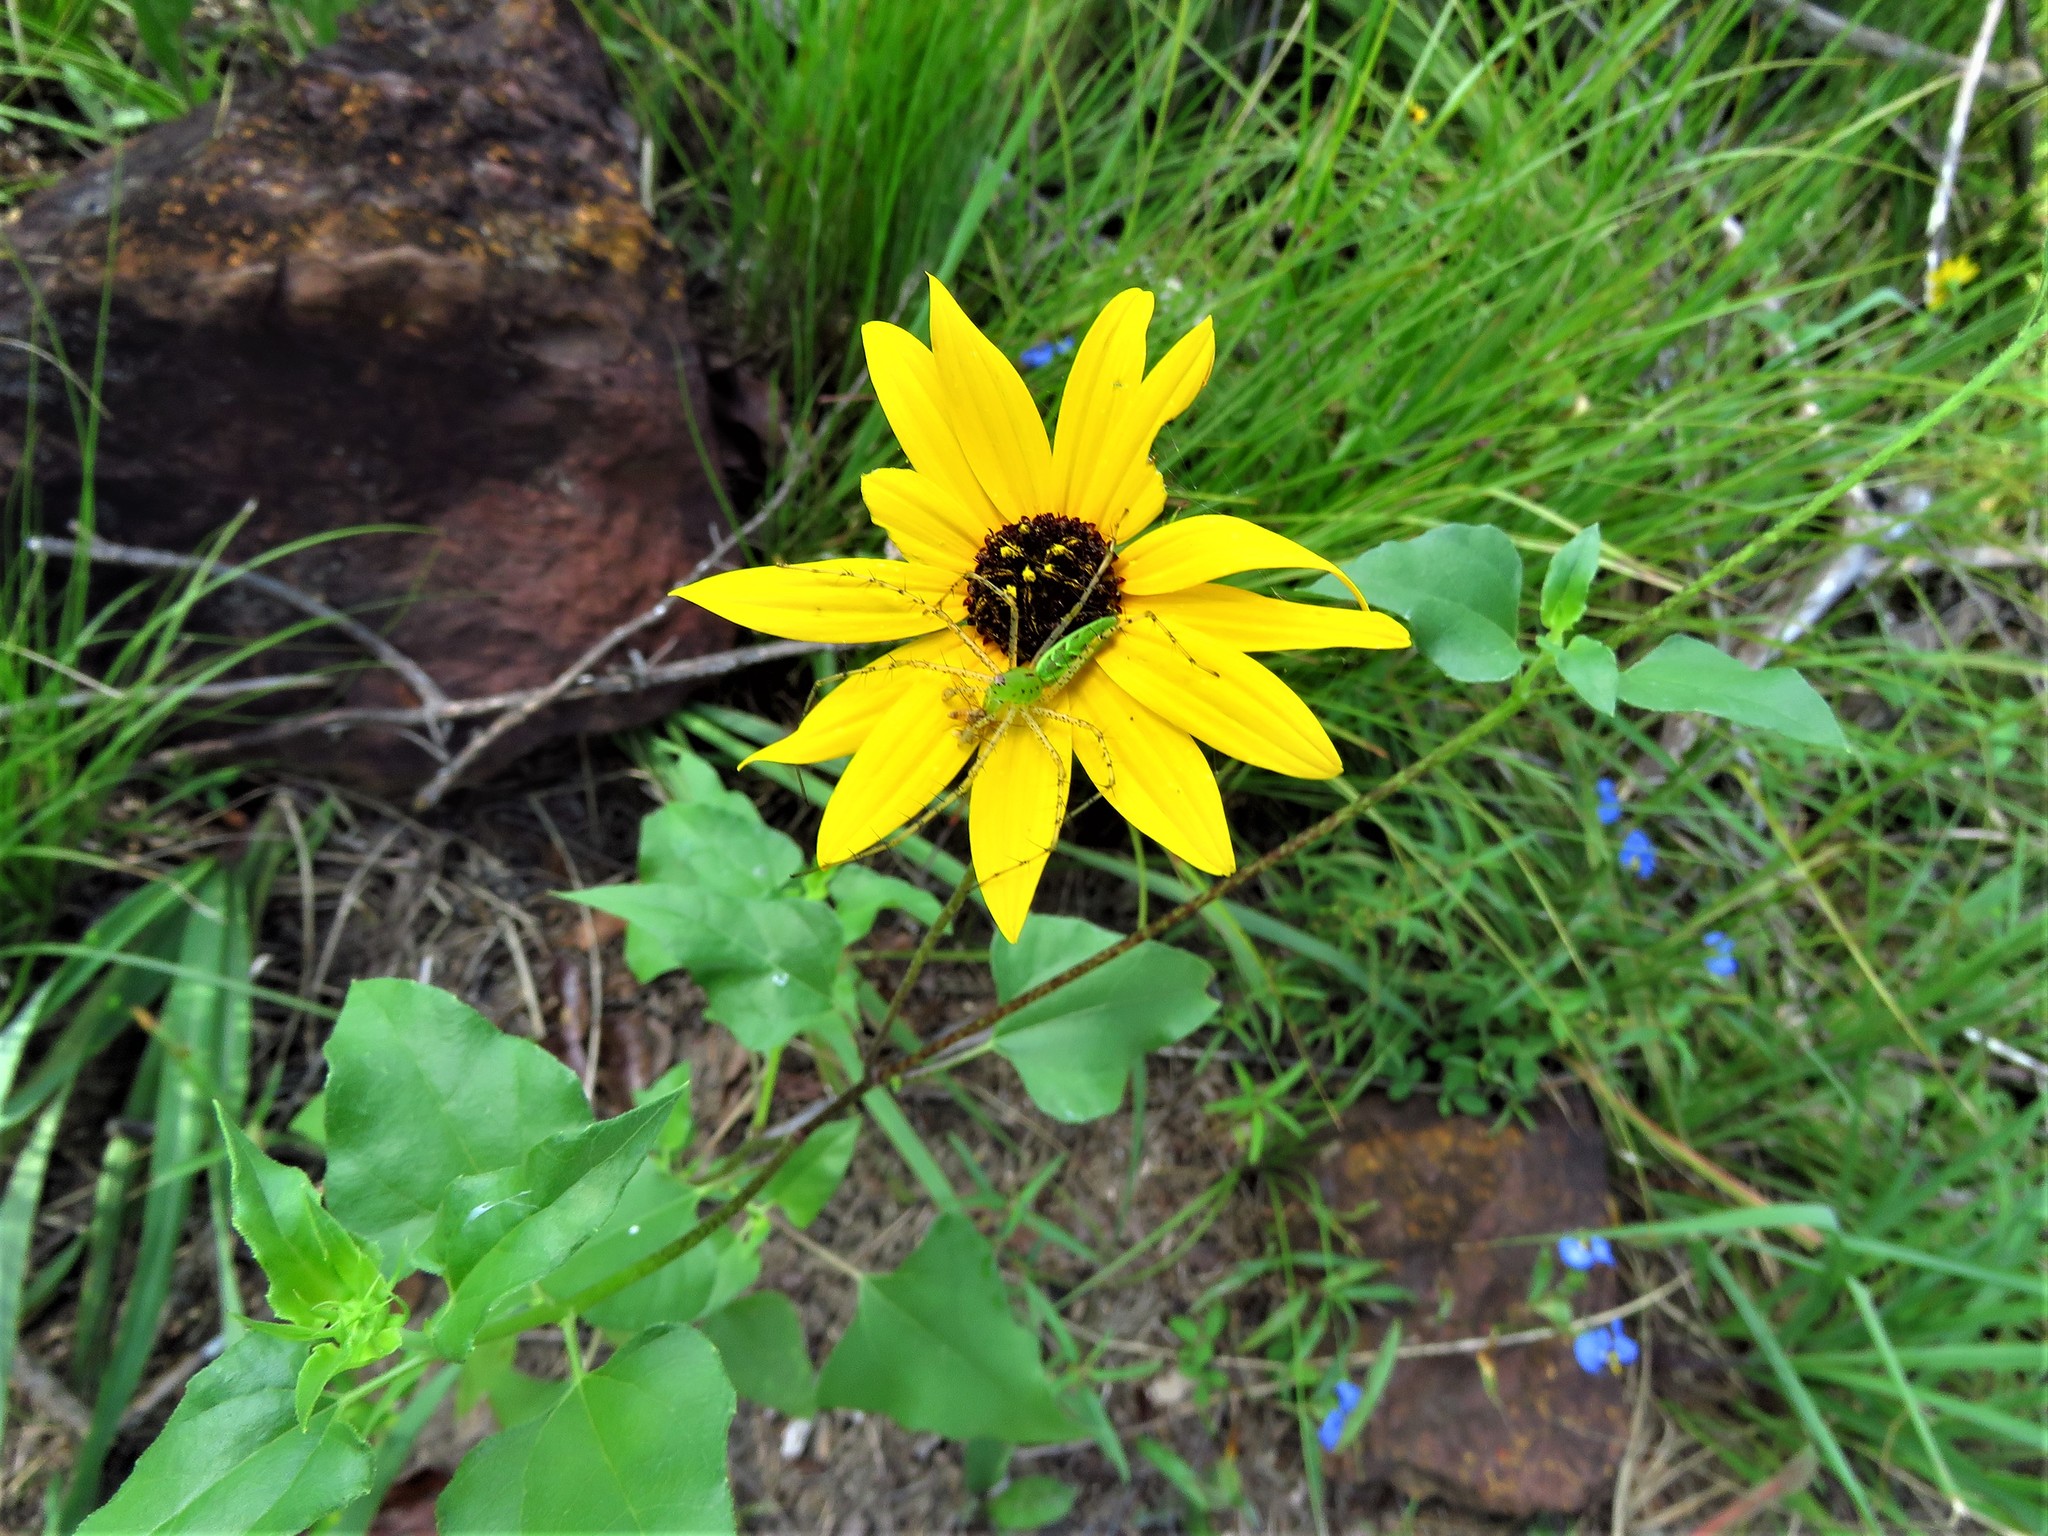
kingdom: Plantae
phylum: Tracheophyta
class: Magnoliopsida
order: Asterales
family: Asteraceae
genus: Helianthus
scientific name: Helianthus debilis
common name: Weak sunflower
